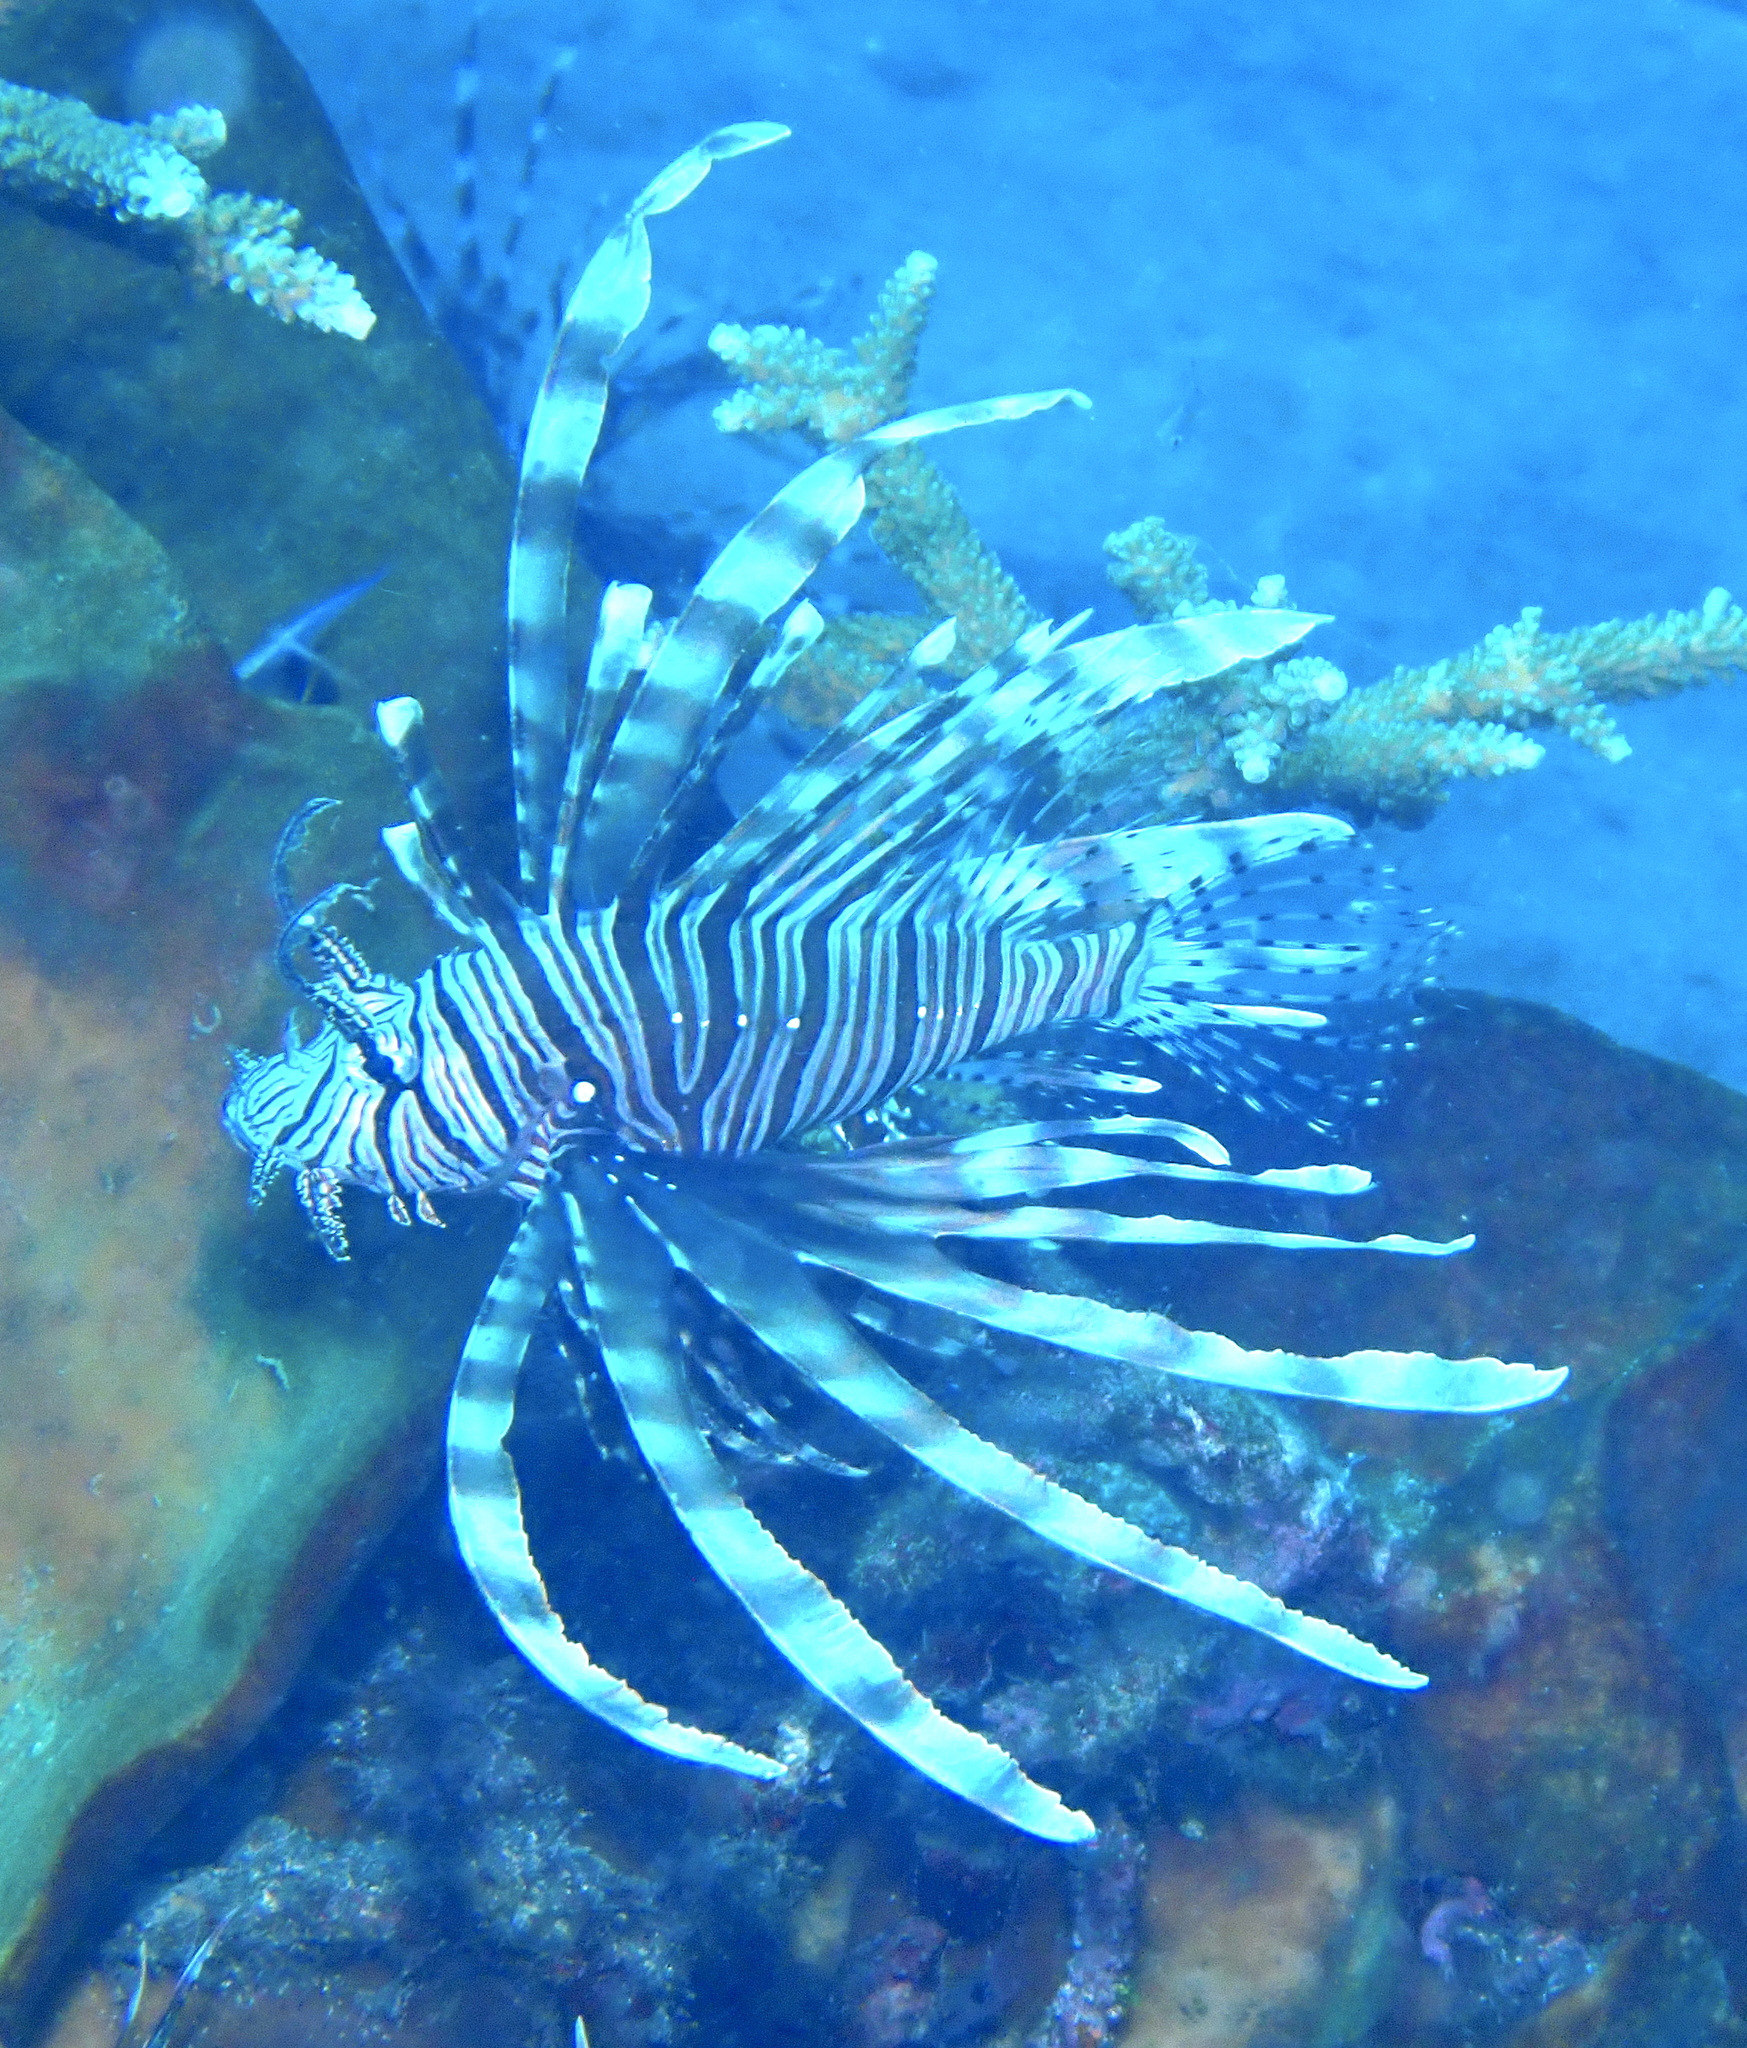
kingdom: Animalia
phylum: Chordata
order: Scorpaeniformes
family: Scorpaenidae
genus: Pterois
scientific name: Pterois volitans
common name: Lionfish
